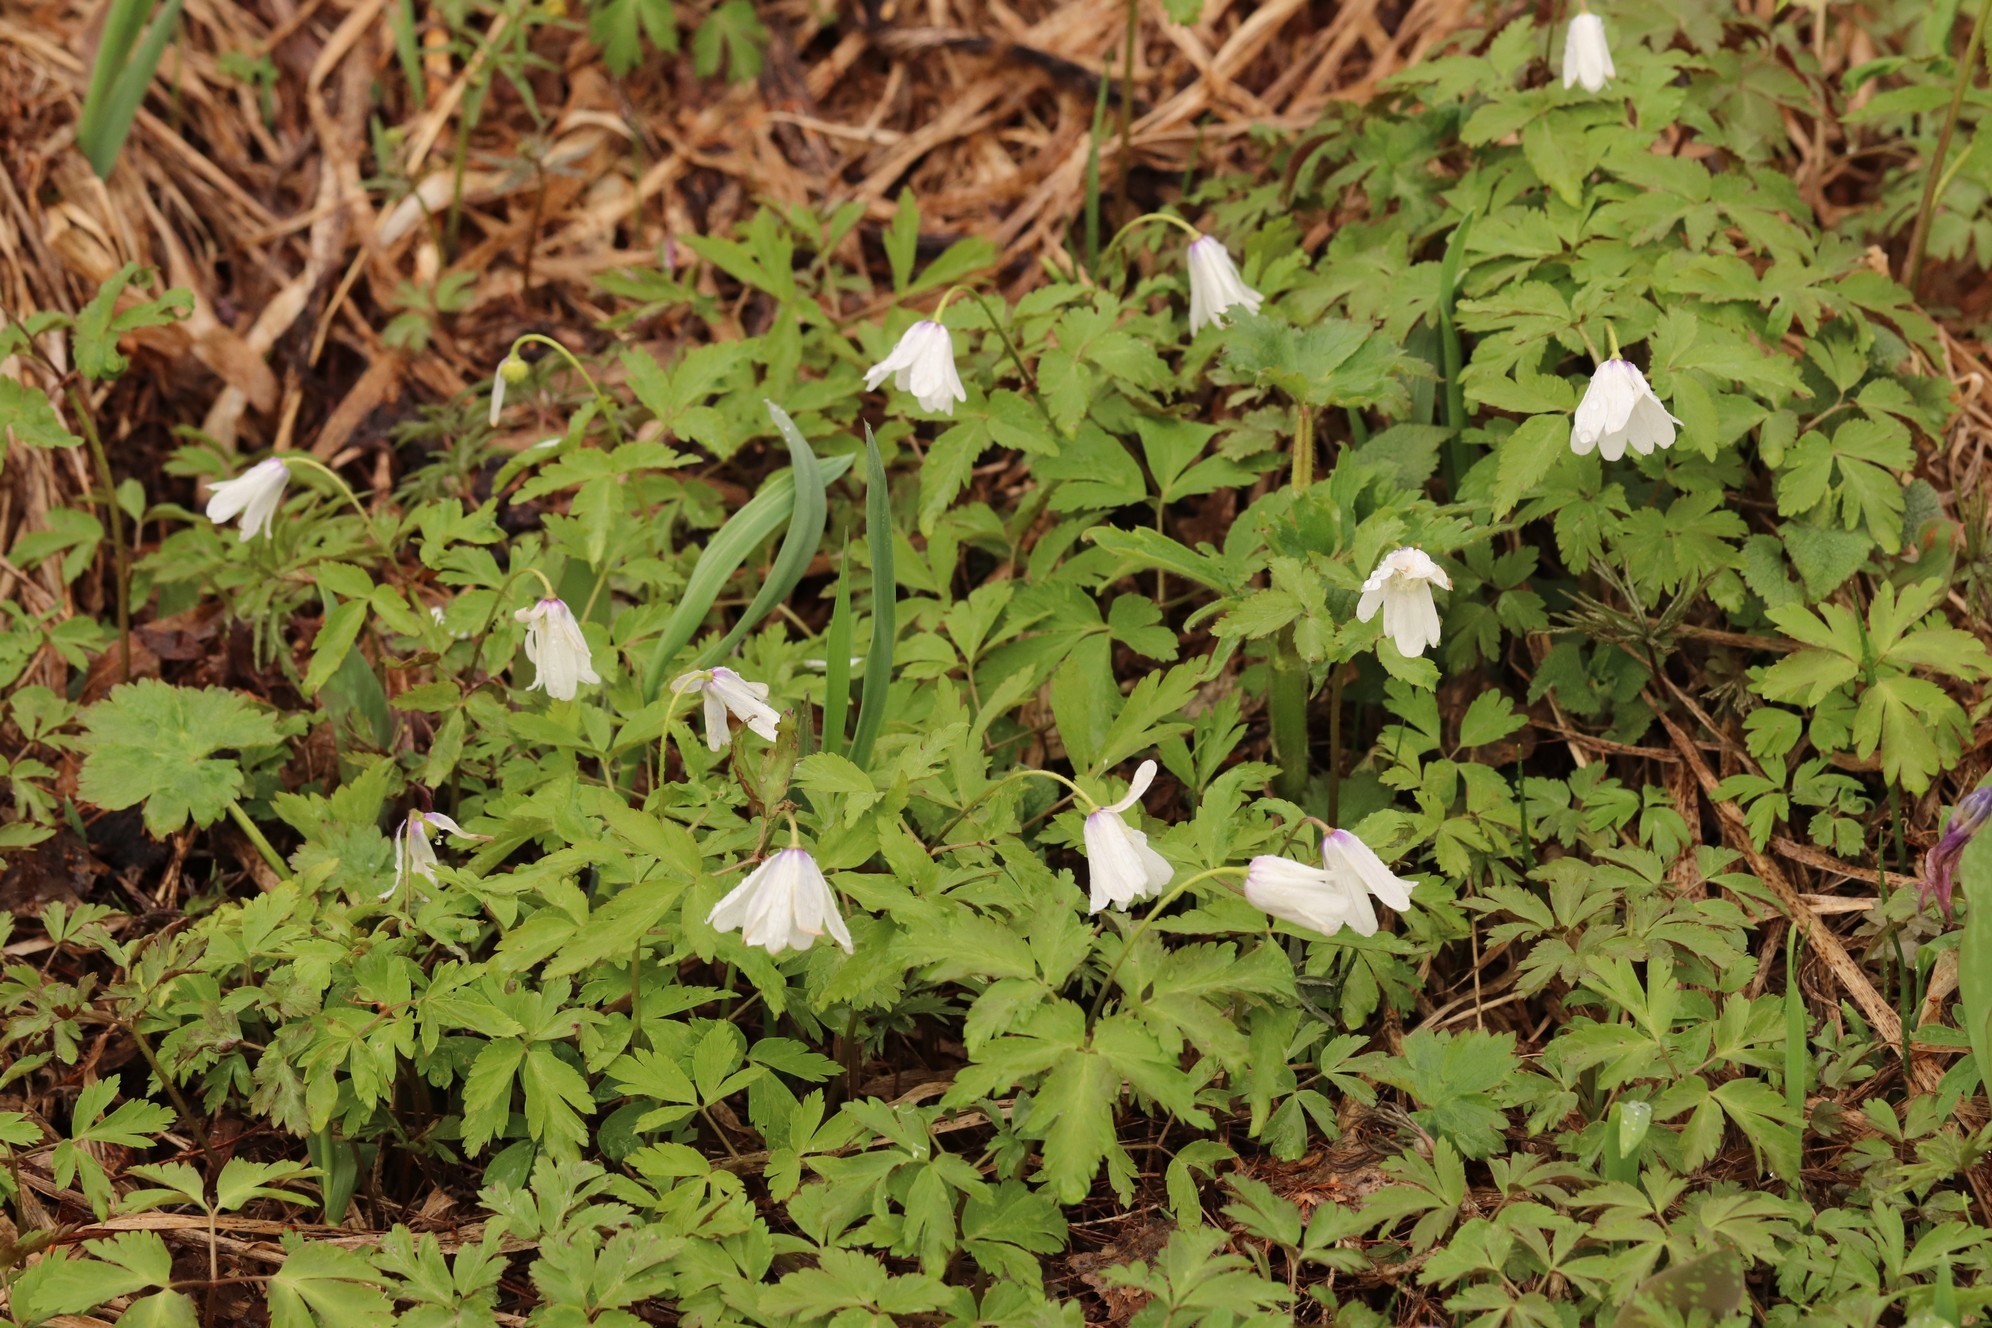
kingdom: Plantae
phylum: Tracheophyta
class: Magnoliopsida
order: Ranunculales
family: Ranunculaceae
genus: Anemone
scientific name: Anemone altaica
